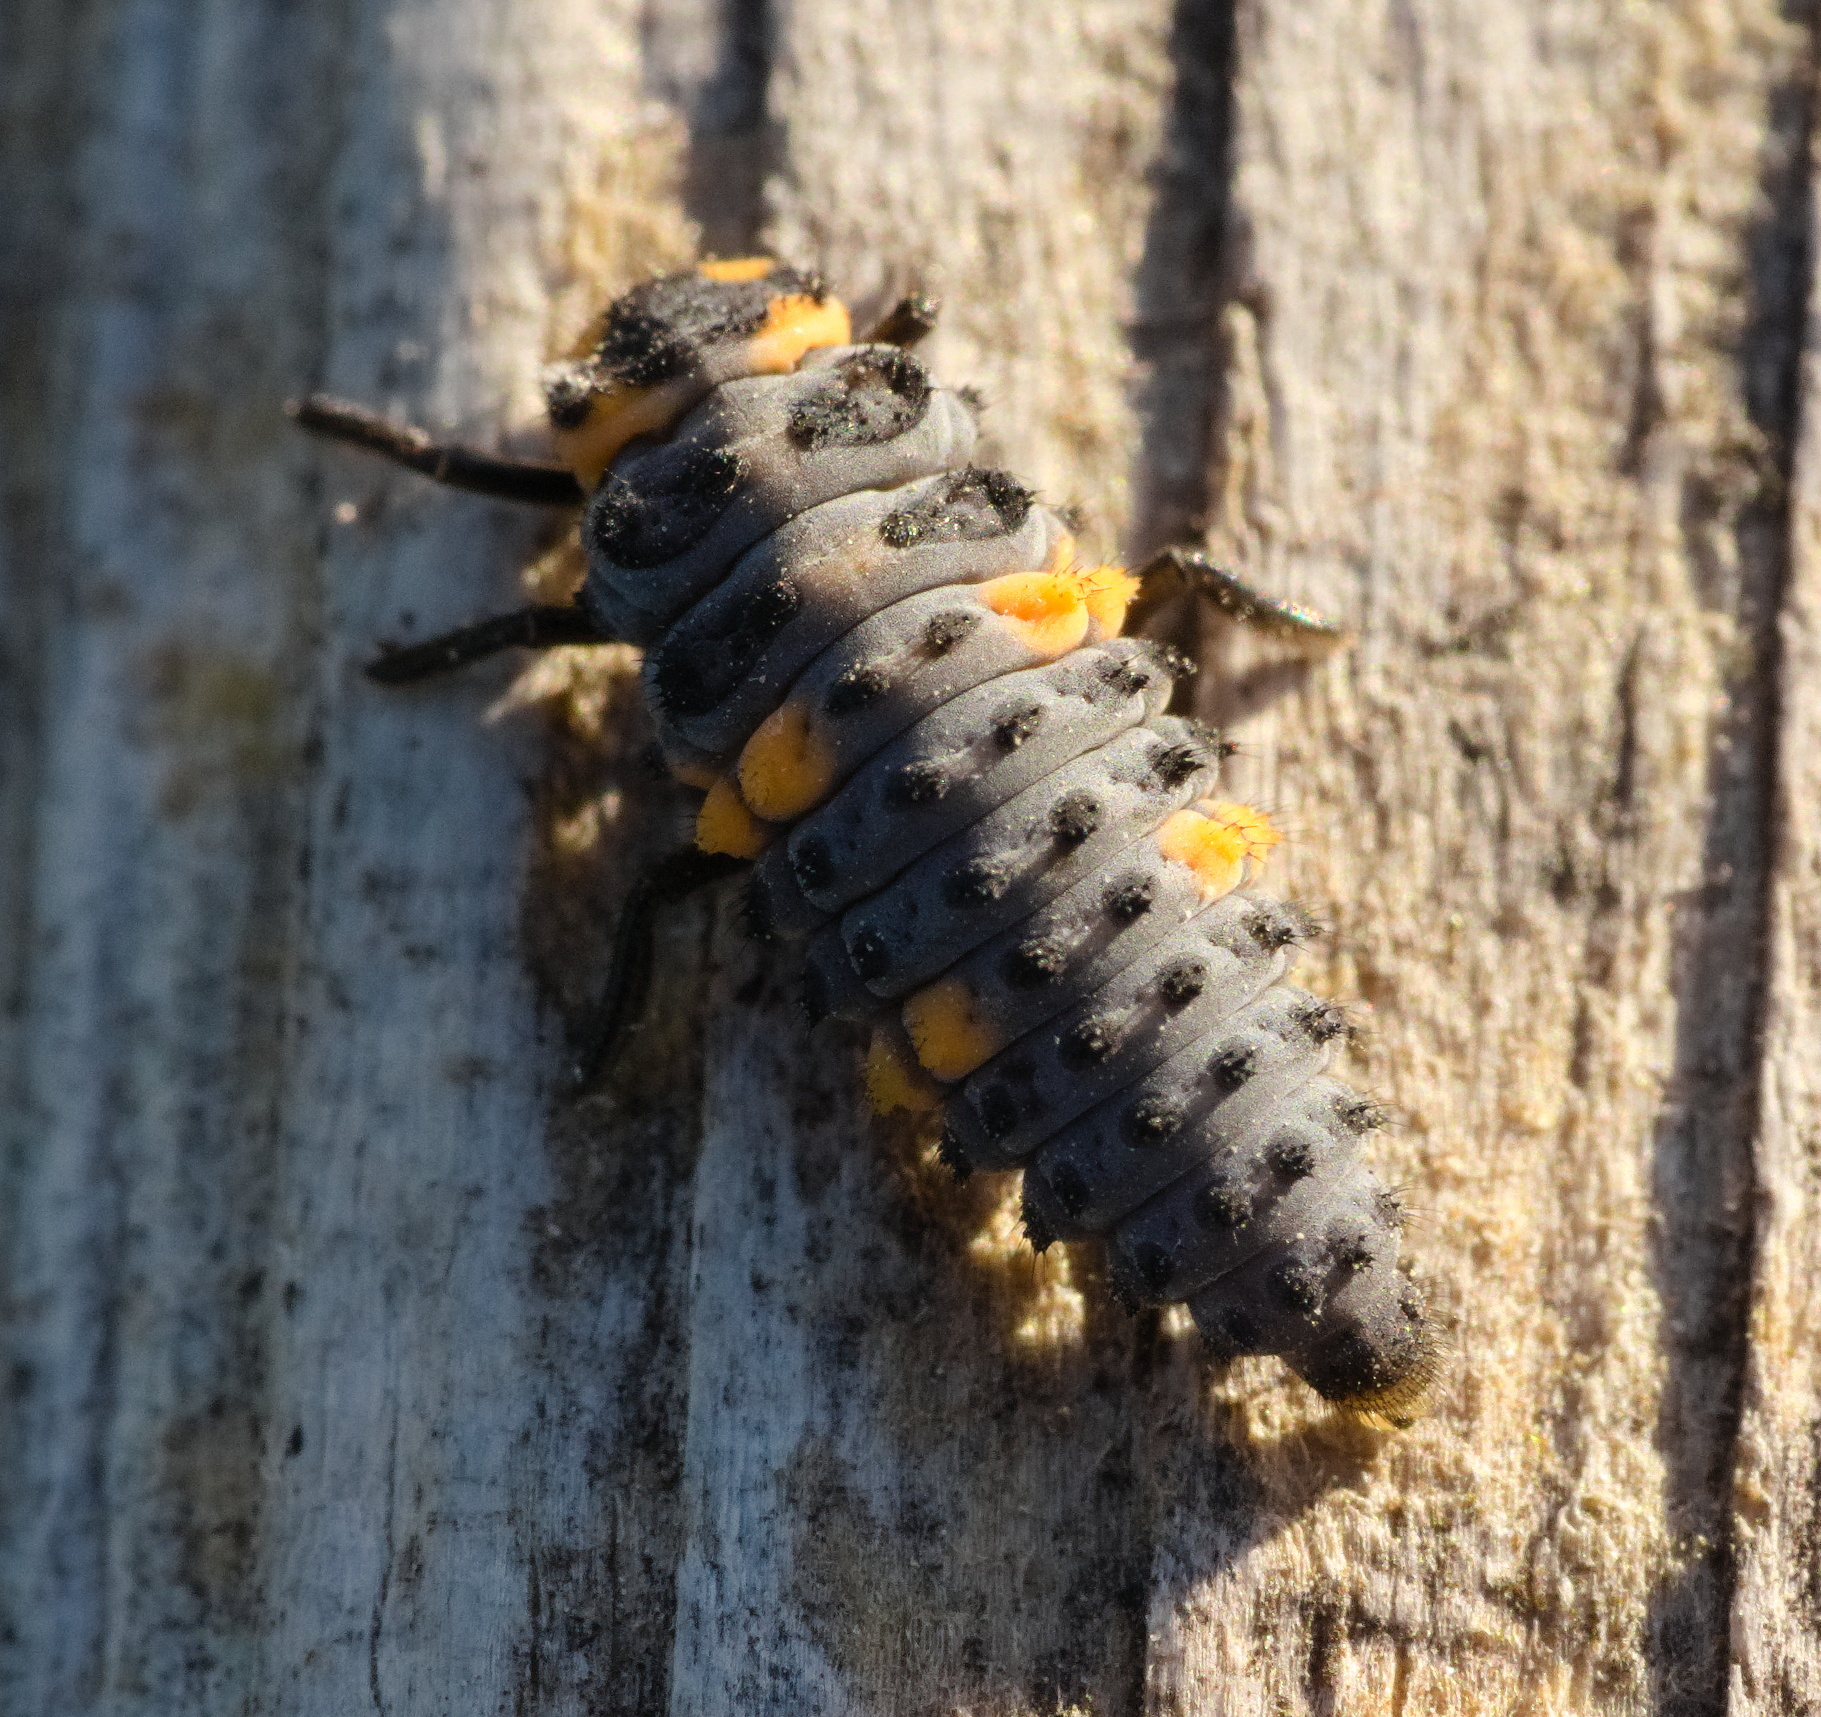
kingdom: Animalia
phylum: Arthropoda
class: Insecta
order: Coleoptera
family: Coccinellidae
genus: Coccinella
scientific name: Coccinella septempunctata
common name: Sevenspotted lady beetle
